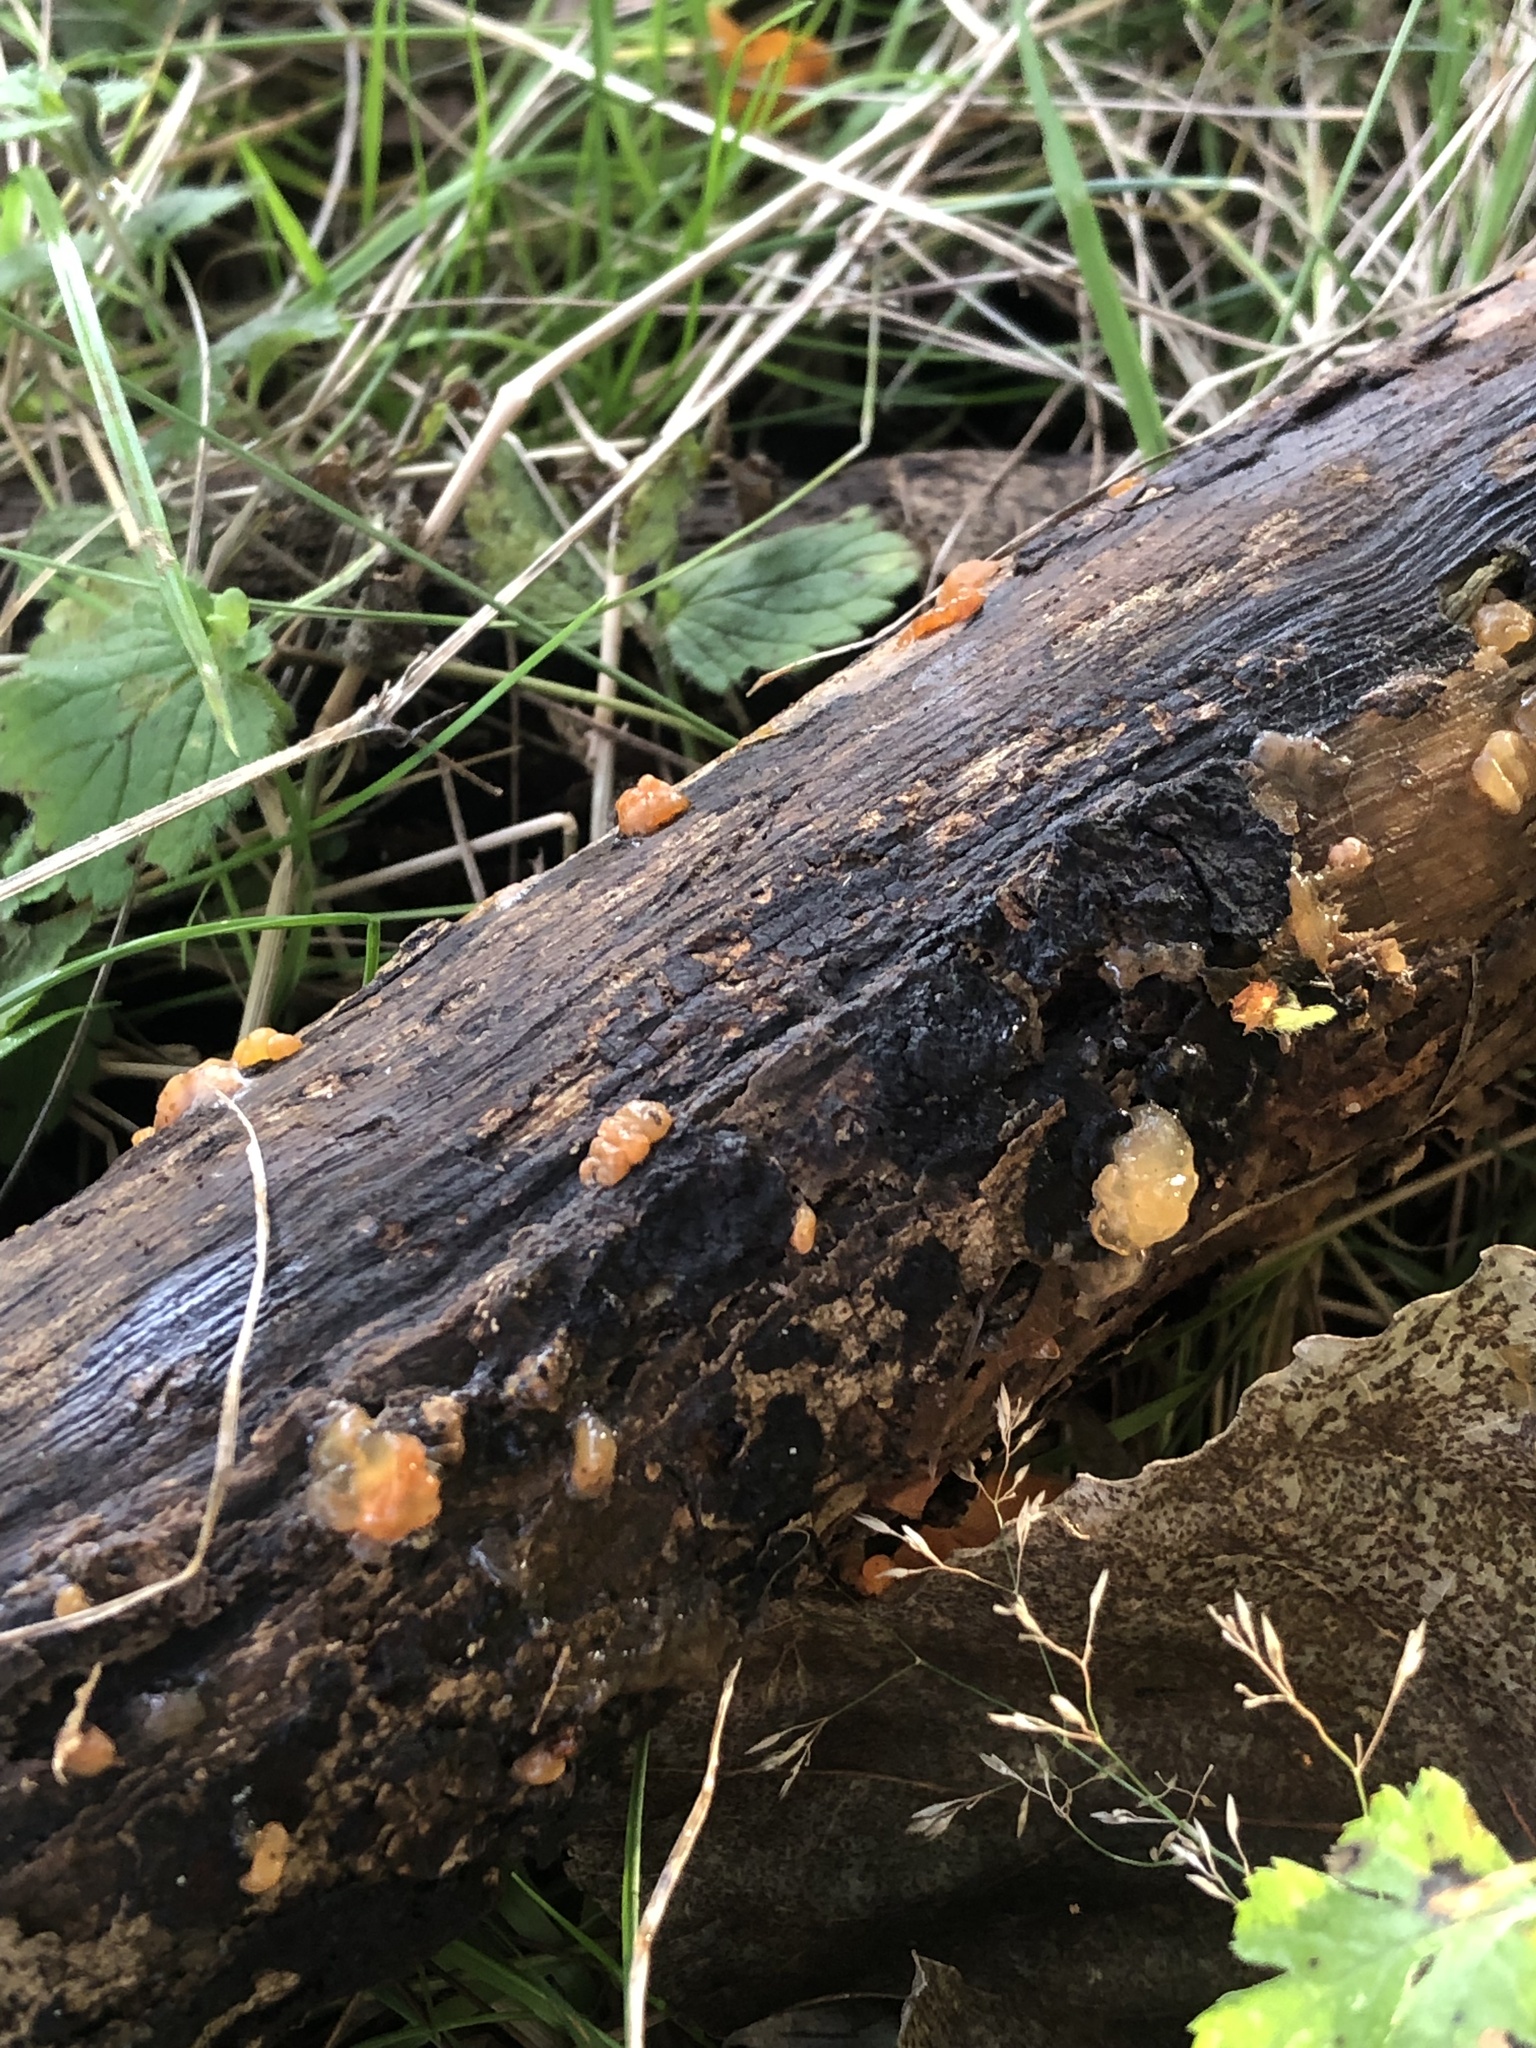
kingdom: Fungi
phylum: Basidiomycota
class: Dacrymycetes
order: Dacrymycetales
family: Dacrymycetaceae
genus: Dacrymyces
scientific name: Dacrymyces stillatus
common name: Common jelly spot
